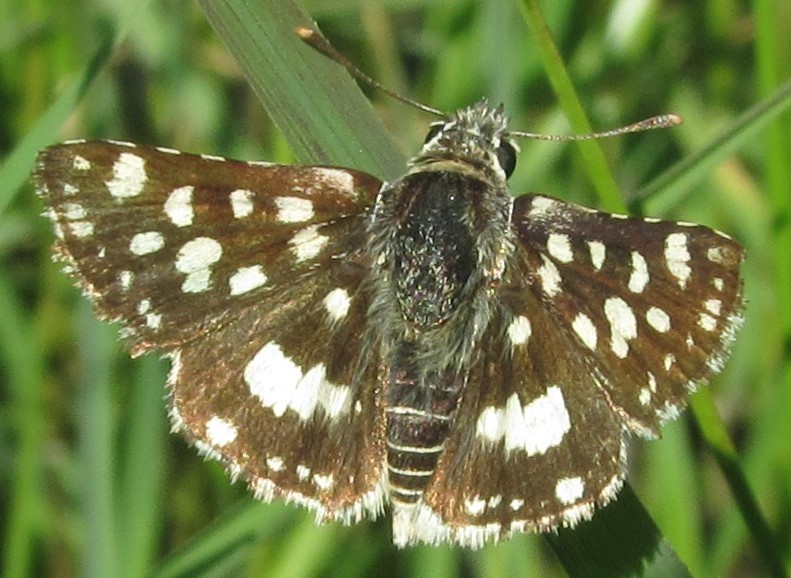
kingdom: Animalia
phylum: Arthropoda
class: Insecta
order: Lepidoptera
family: Hesperiidae
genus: Spialia
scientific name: Spialia spio
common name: Mountain sandman
